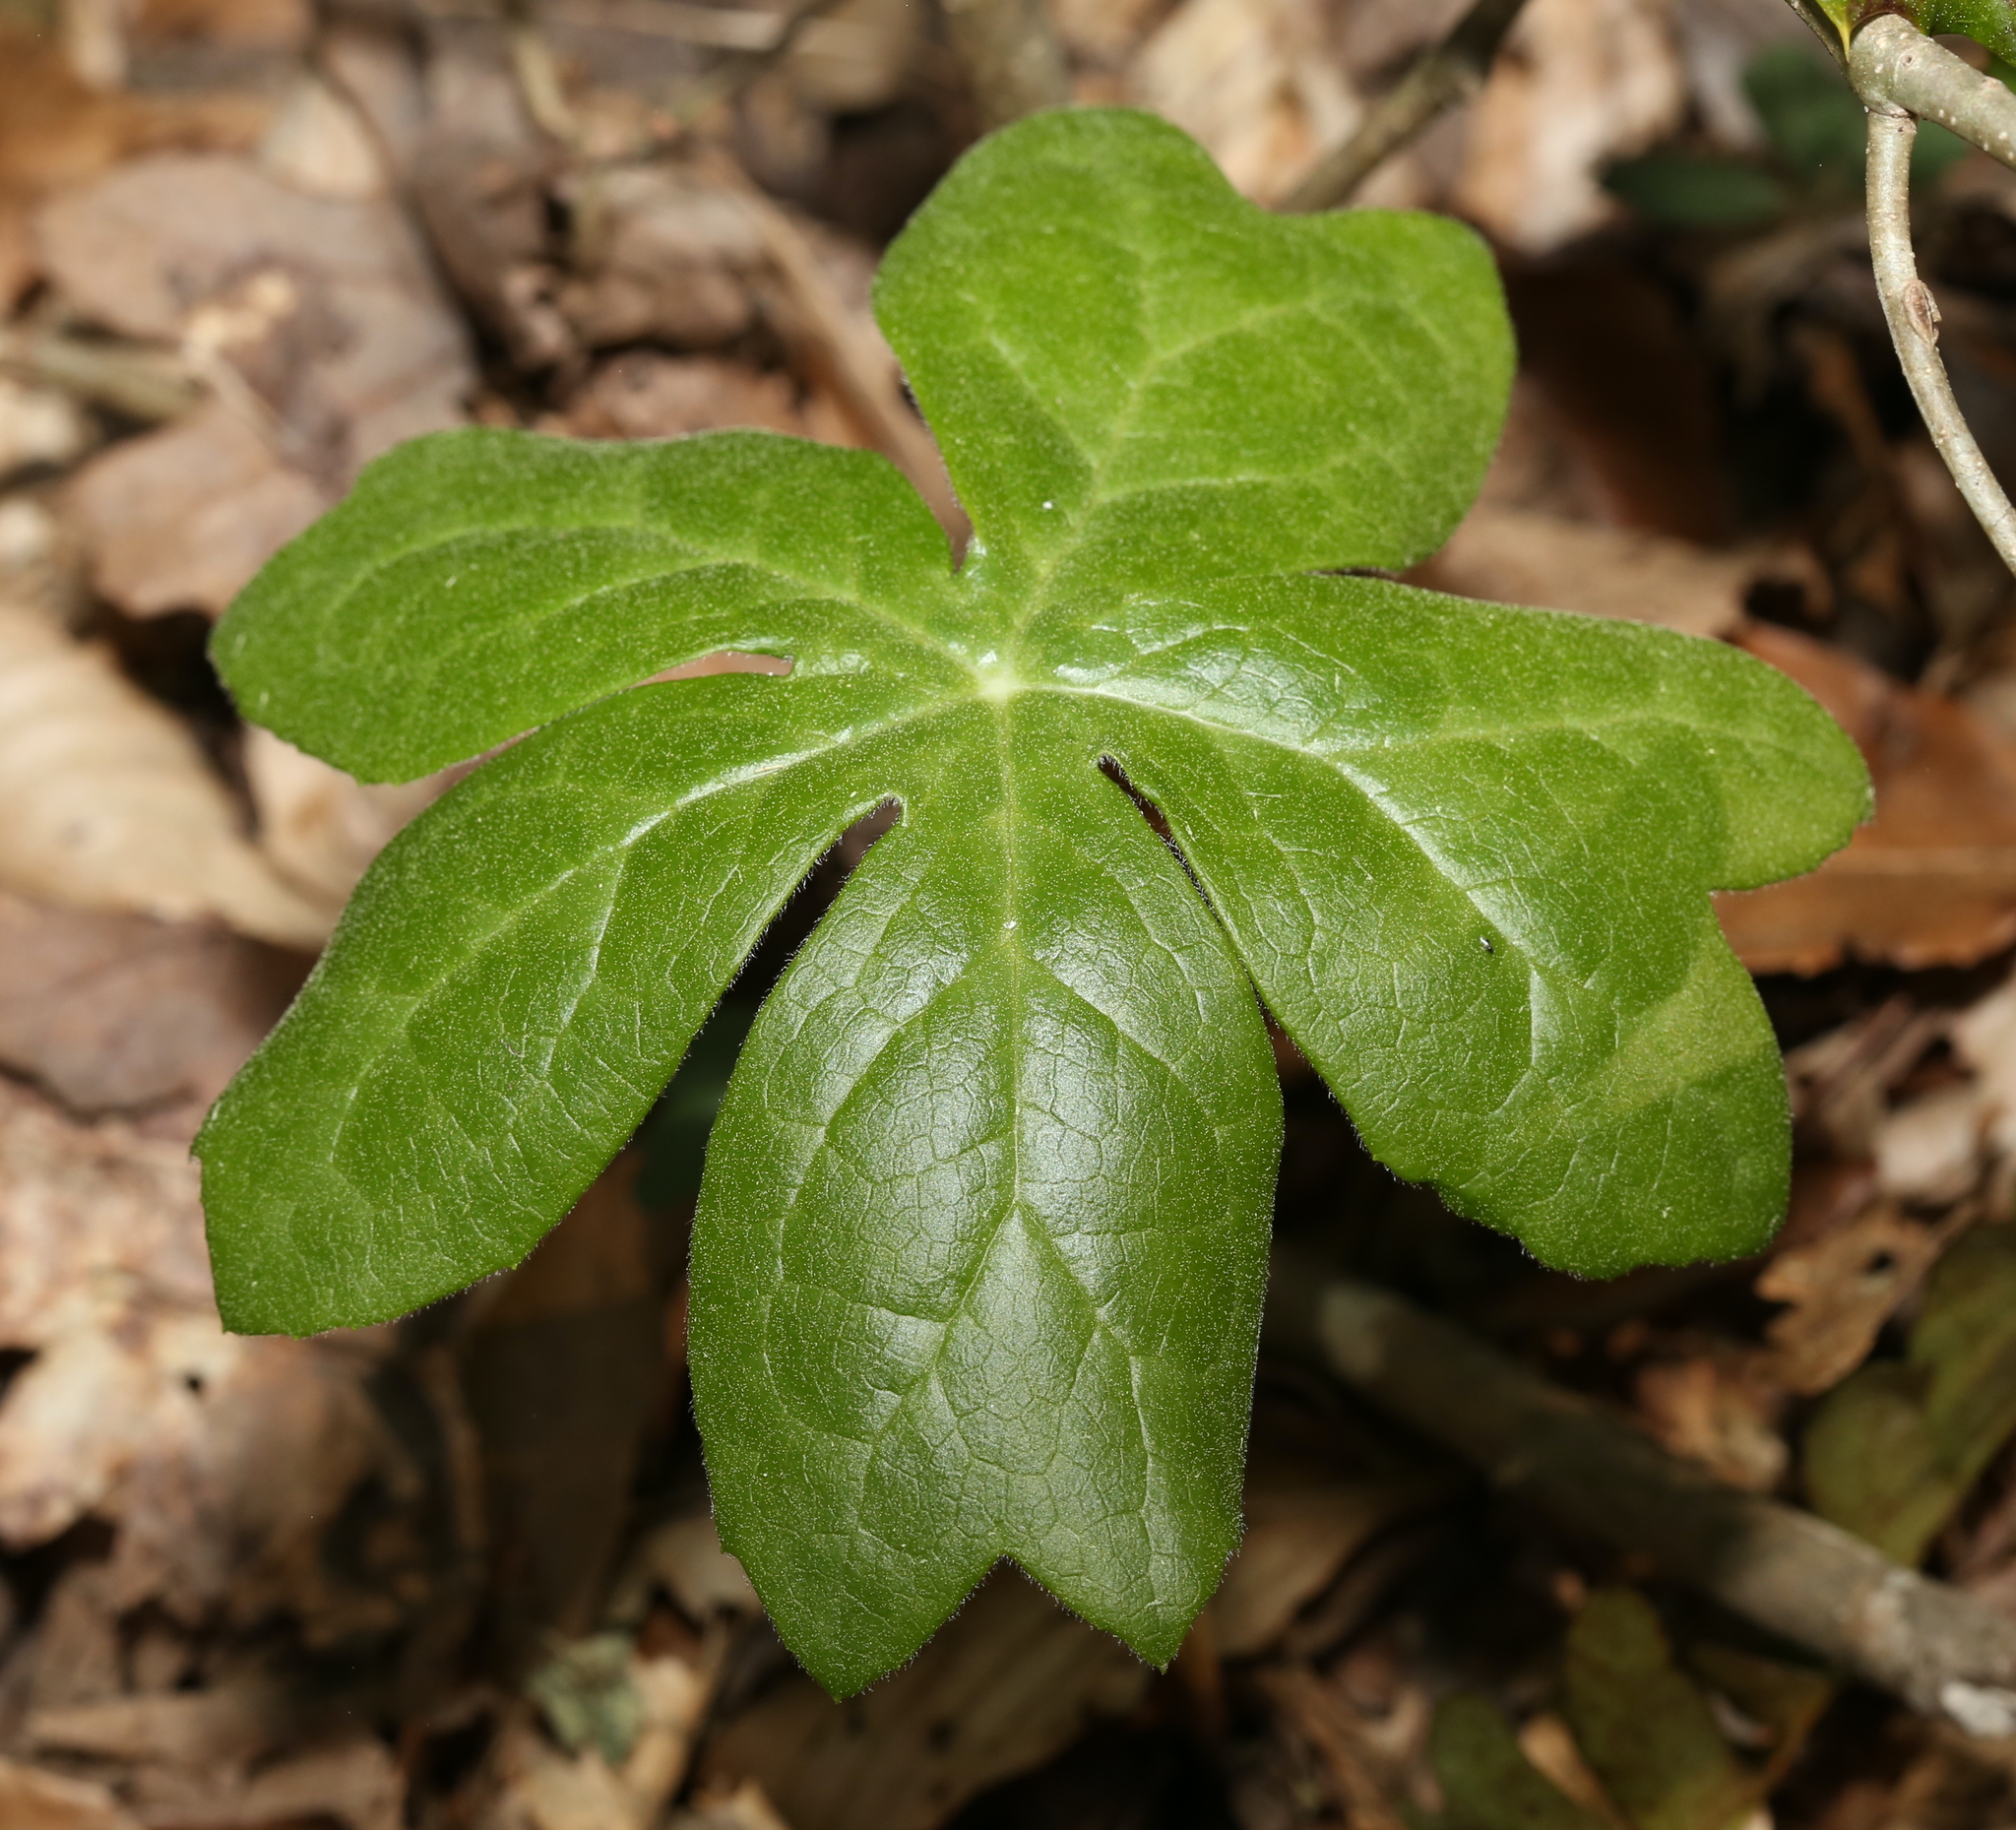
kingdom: Plantae
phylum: Tracheophyta
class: Magnoliopsida
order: Ranunculales
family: Berberidaceae
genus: Podophyllum
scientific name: Podophyllum peltatum
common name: Wild mandrake
